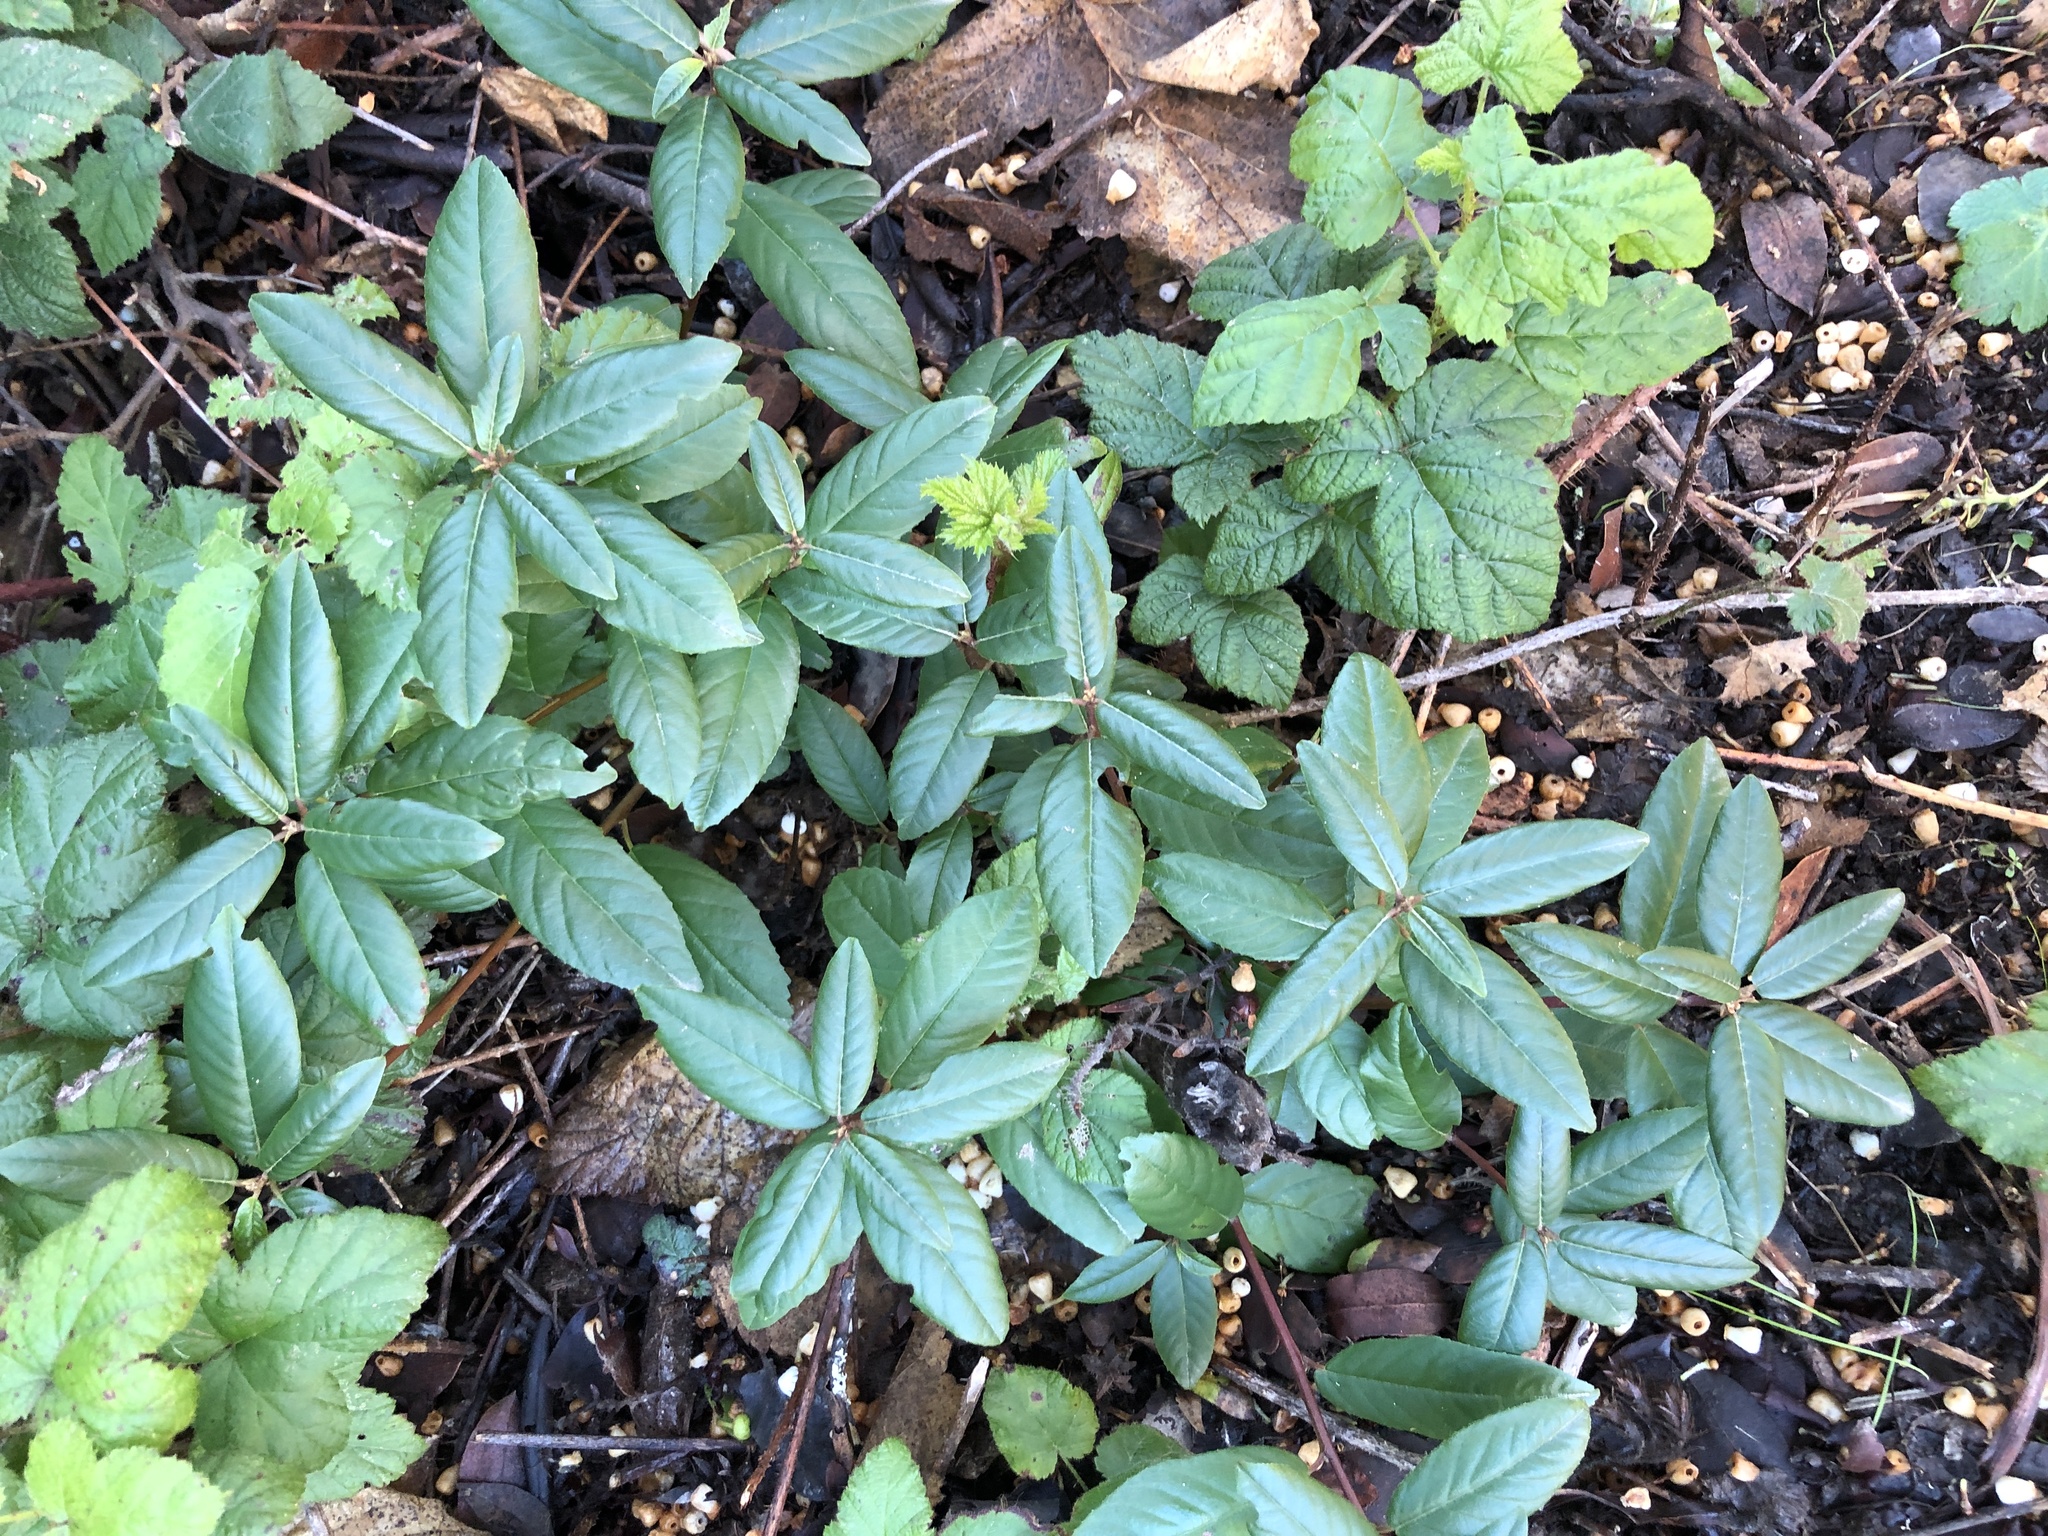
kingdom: Plantae
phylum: Tracheophyta
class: Magnoliopsida
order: Rosales
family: Rhamnaceae
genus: Frangula
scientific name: Frangula californica
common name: California buckthorn
